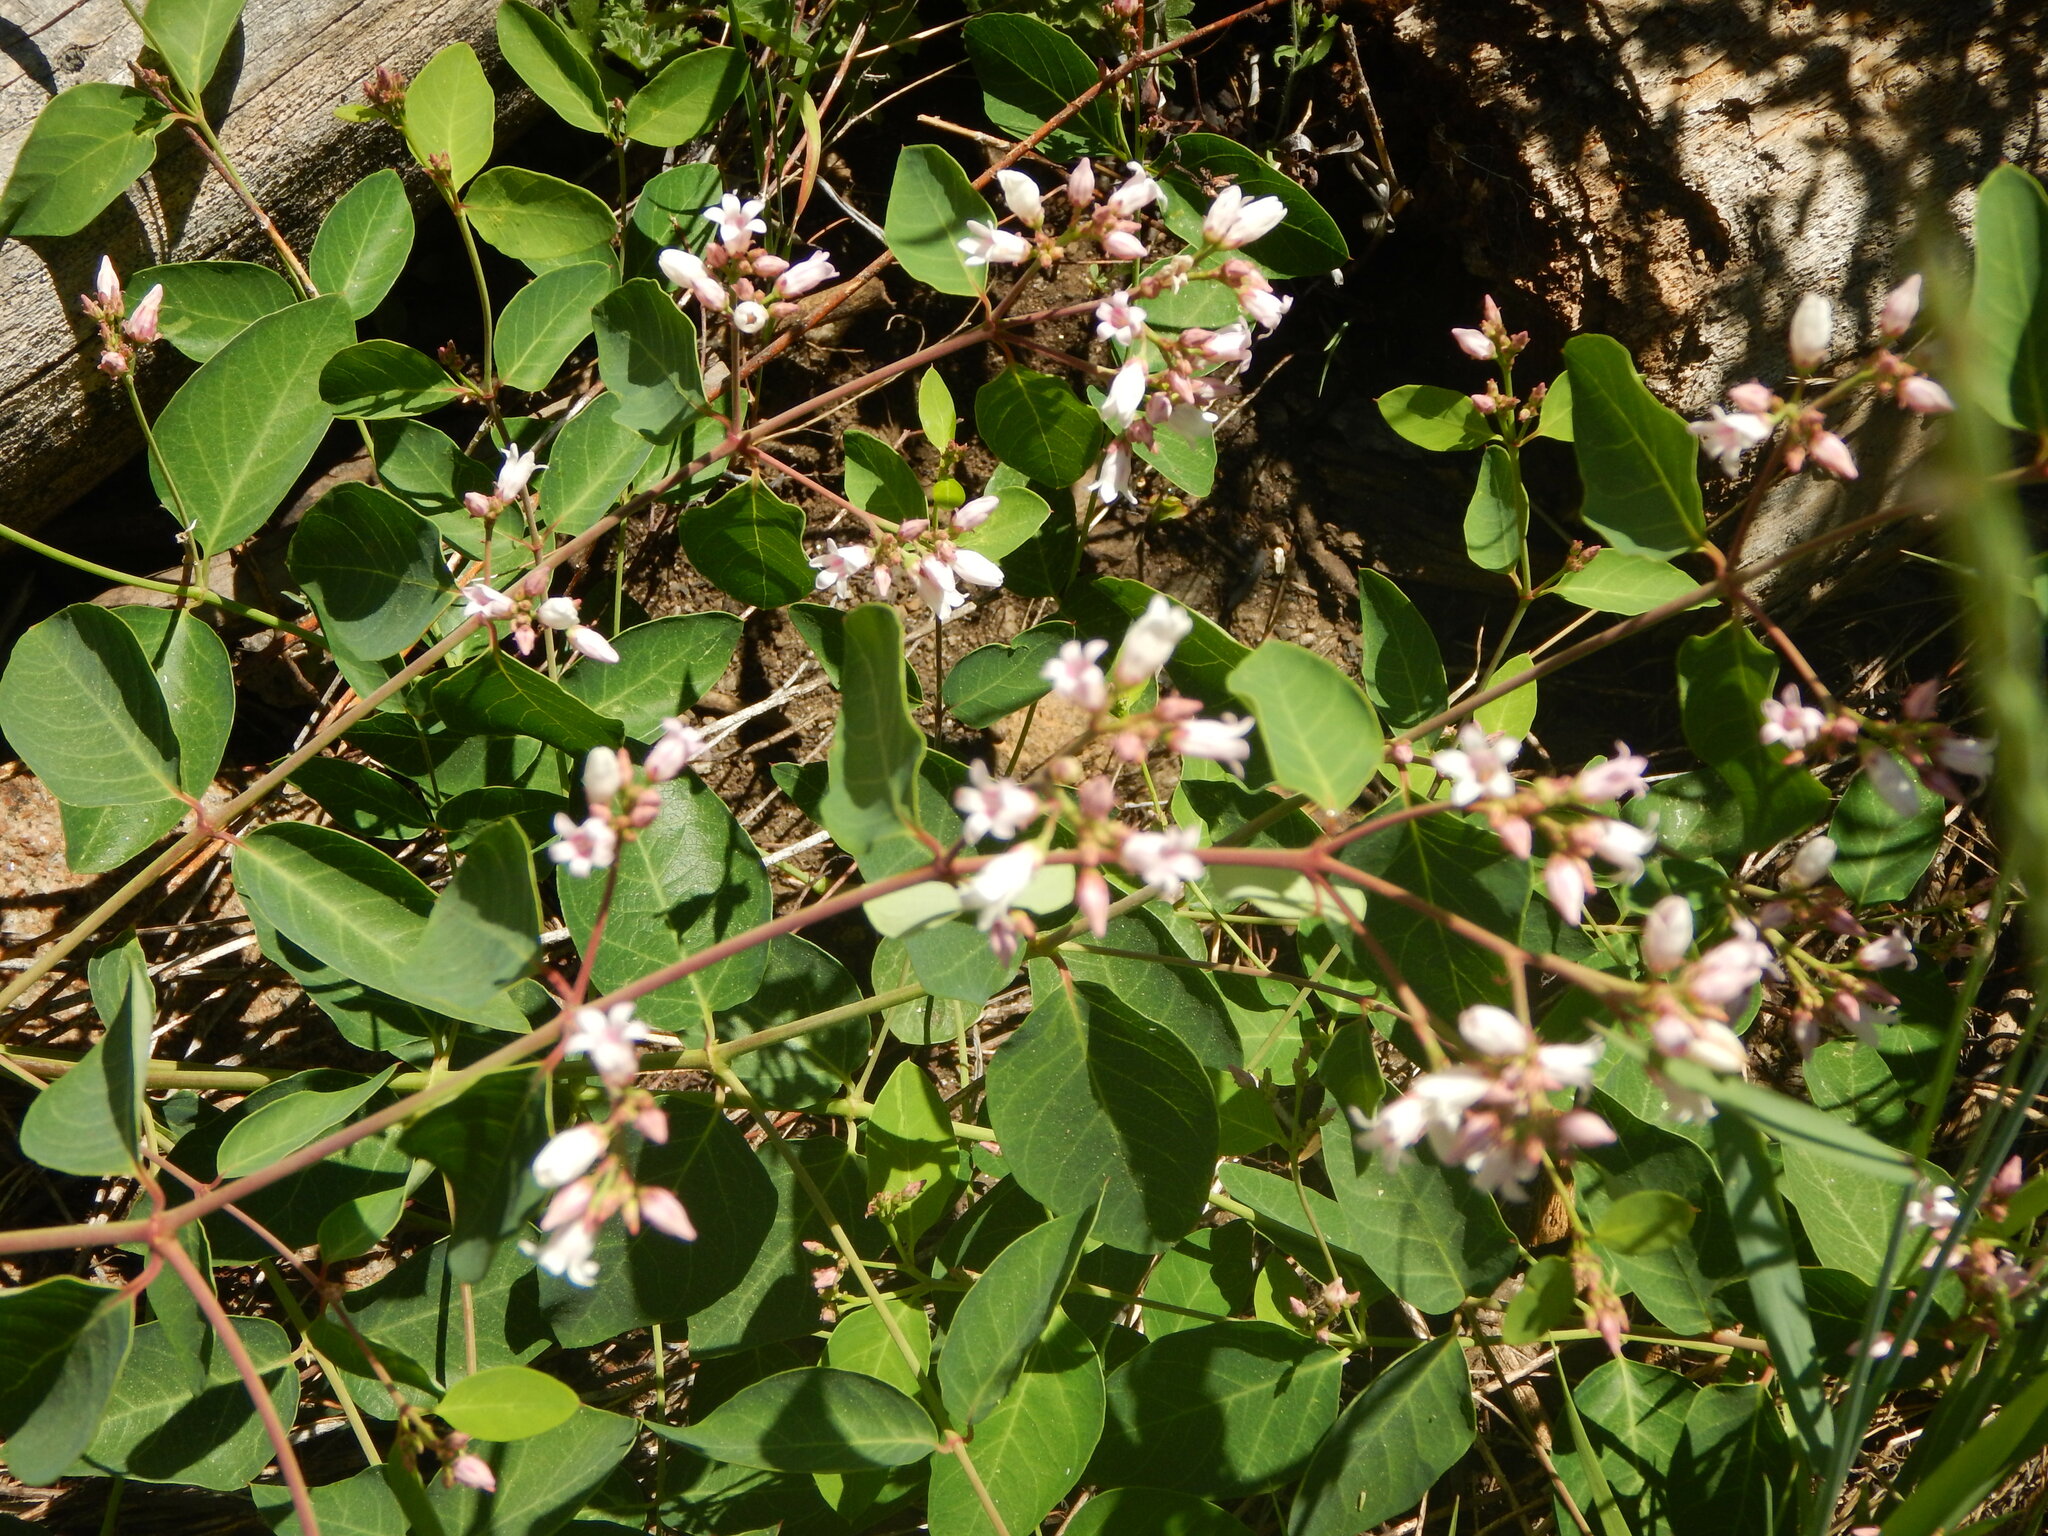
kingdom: Plantae
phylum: Tracheophyta
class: Magnoliopsida
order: Gentianales
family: Apocynaceae
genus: Apocynum
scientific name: Apocynum androsaemifolium
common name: Spreading dogbane
